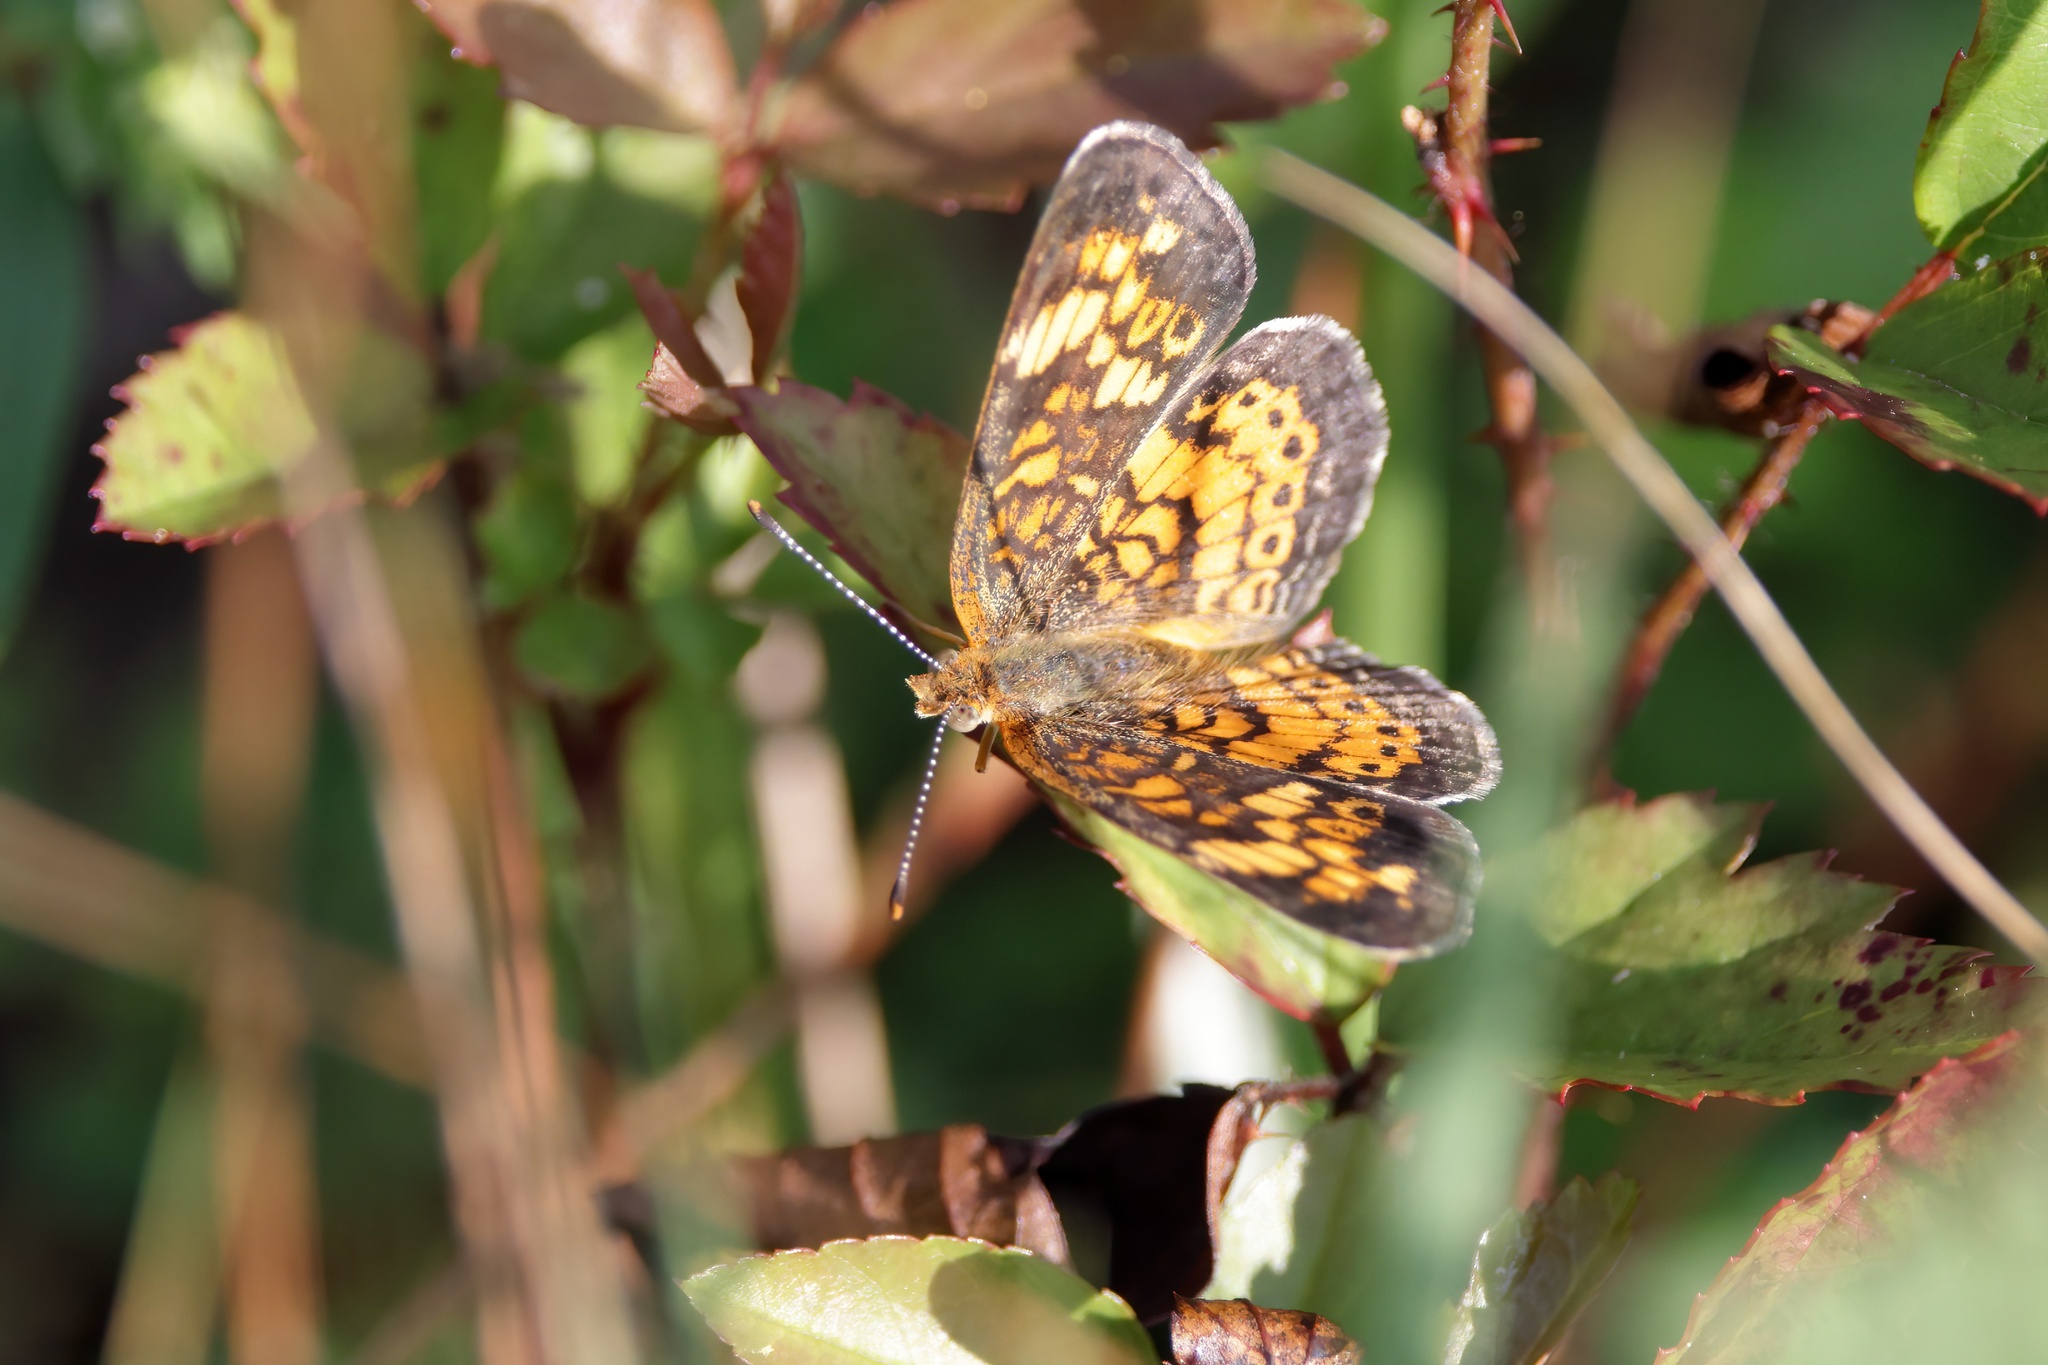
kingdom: Animalia
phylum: Arthropoda
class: Insecta
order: Lepidoptera
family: Nymphalidae
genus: Phyciodes
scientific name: Phyciodes tharos
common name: Pearl crescent
